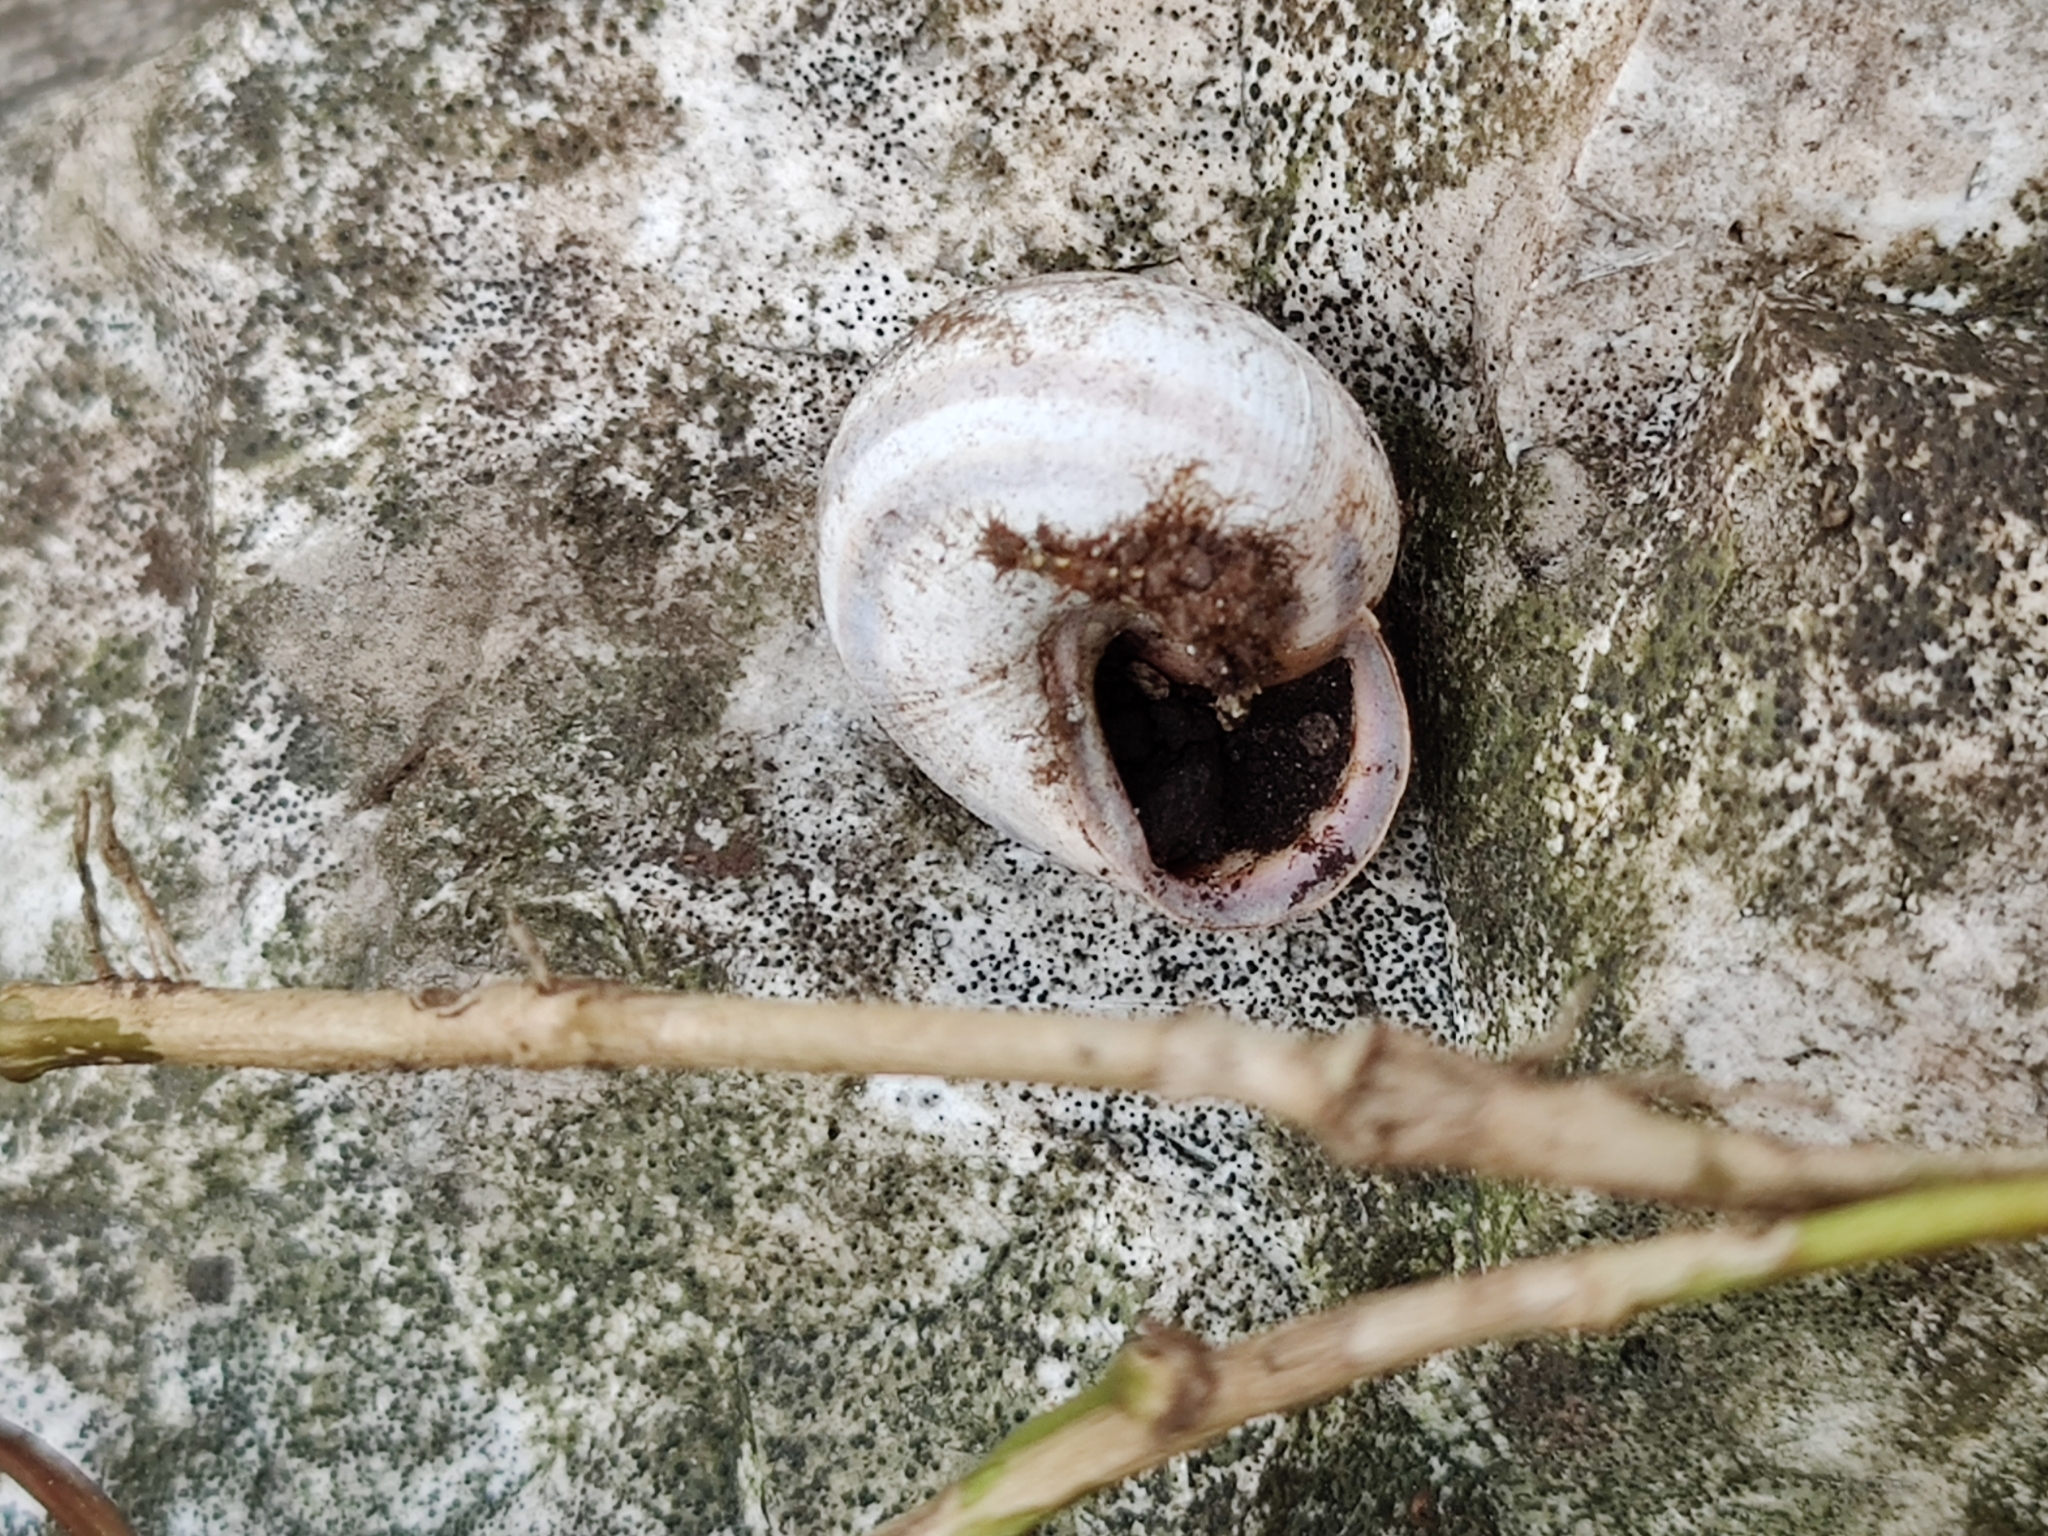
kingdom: Animalia
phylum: Mollusca
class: Gastropoda
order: Stylommatophora
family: Helicidae
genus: Cepaea
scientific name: Cepaea nemoralis
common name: Grovesnail
